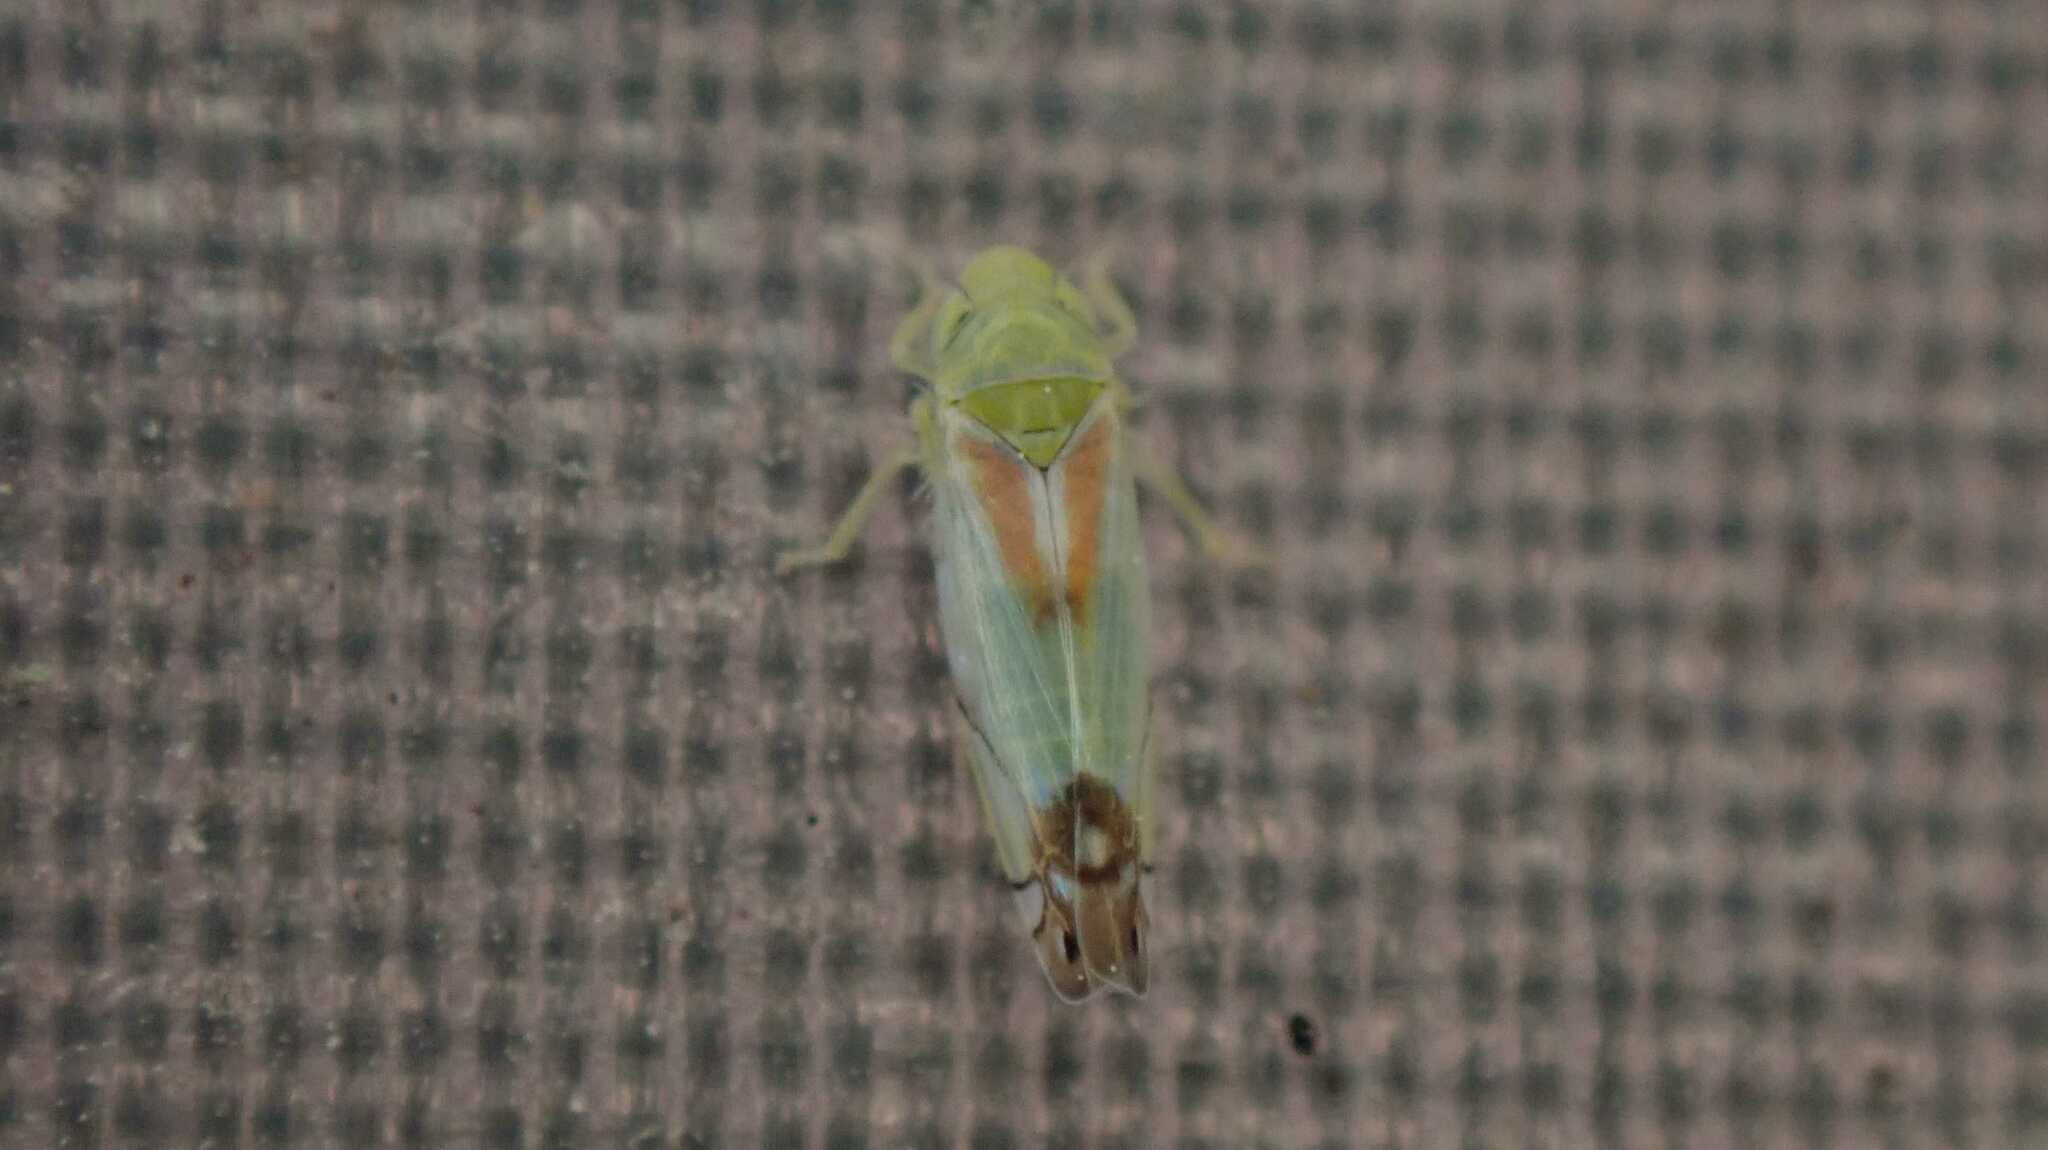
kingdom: Animalia
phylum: Arthropoda
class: Insecta
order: Hemiptera
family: Cicadellidae
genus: Zyginella
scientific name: Zyginella pulchra
